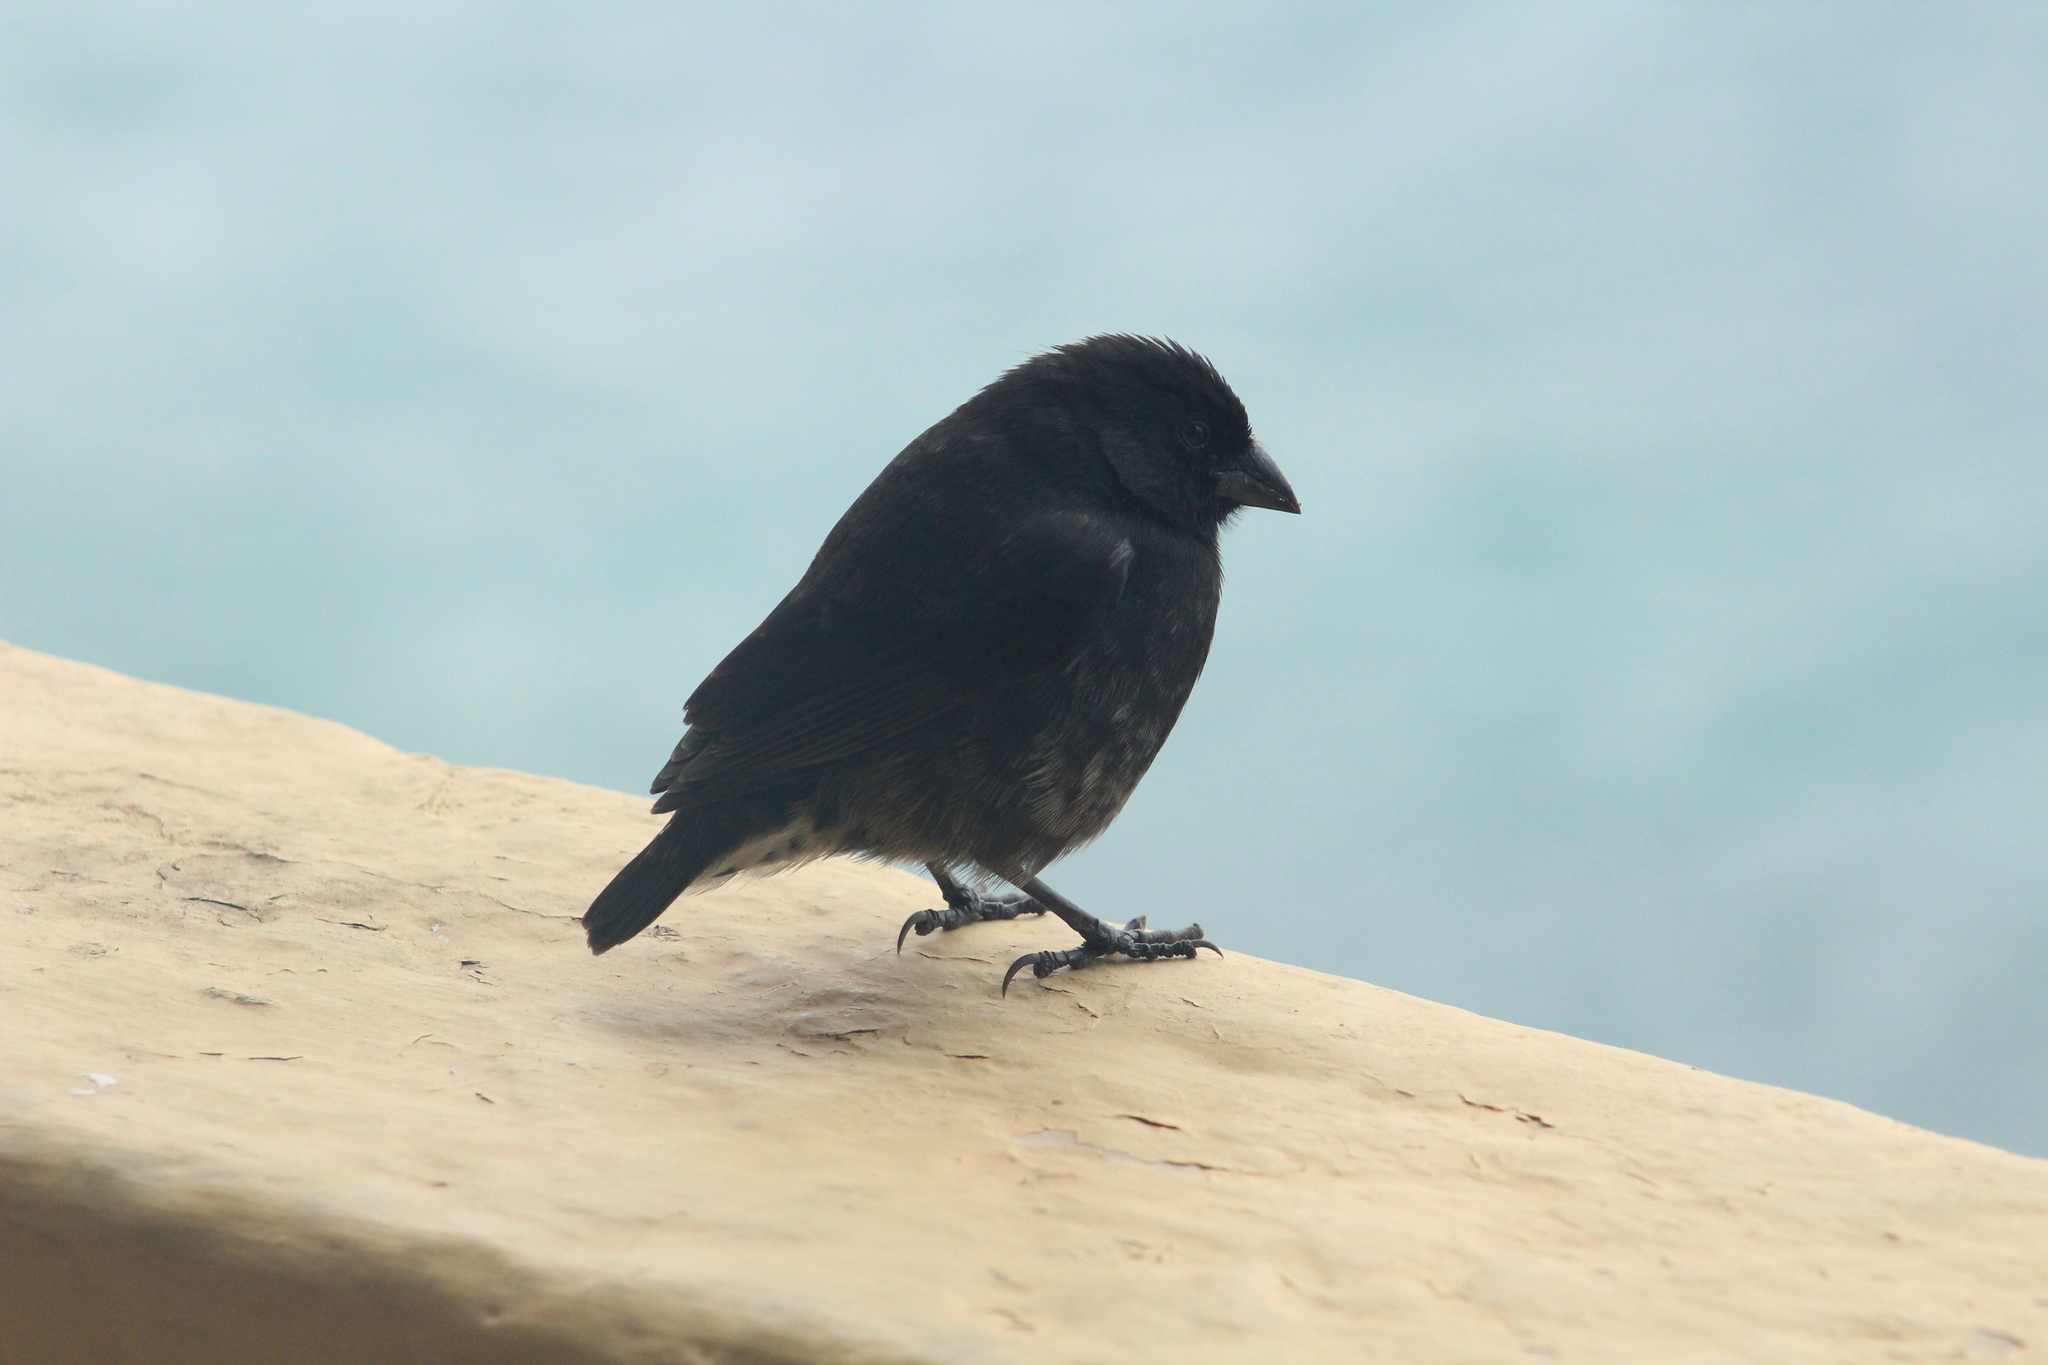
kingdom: Animalia
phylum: Chordata
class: Aves
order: Passeriformes
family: Thraupidae
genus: Geospiza
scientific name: Geospiza fuliginosa
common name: Small ground finch
